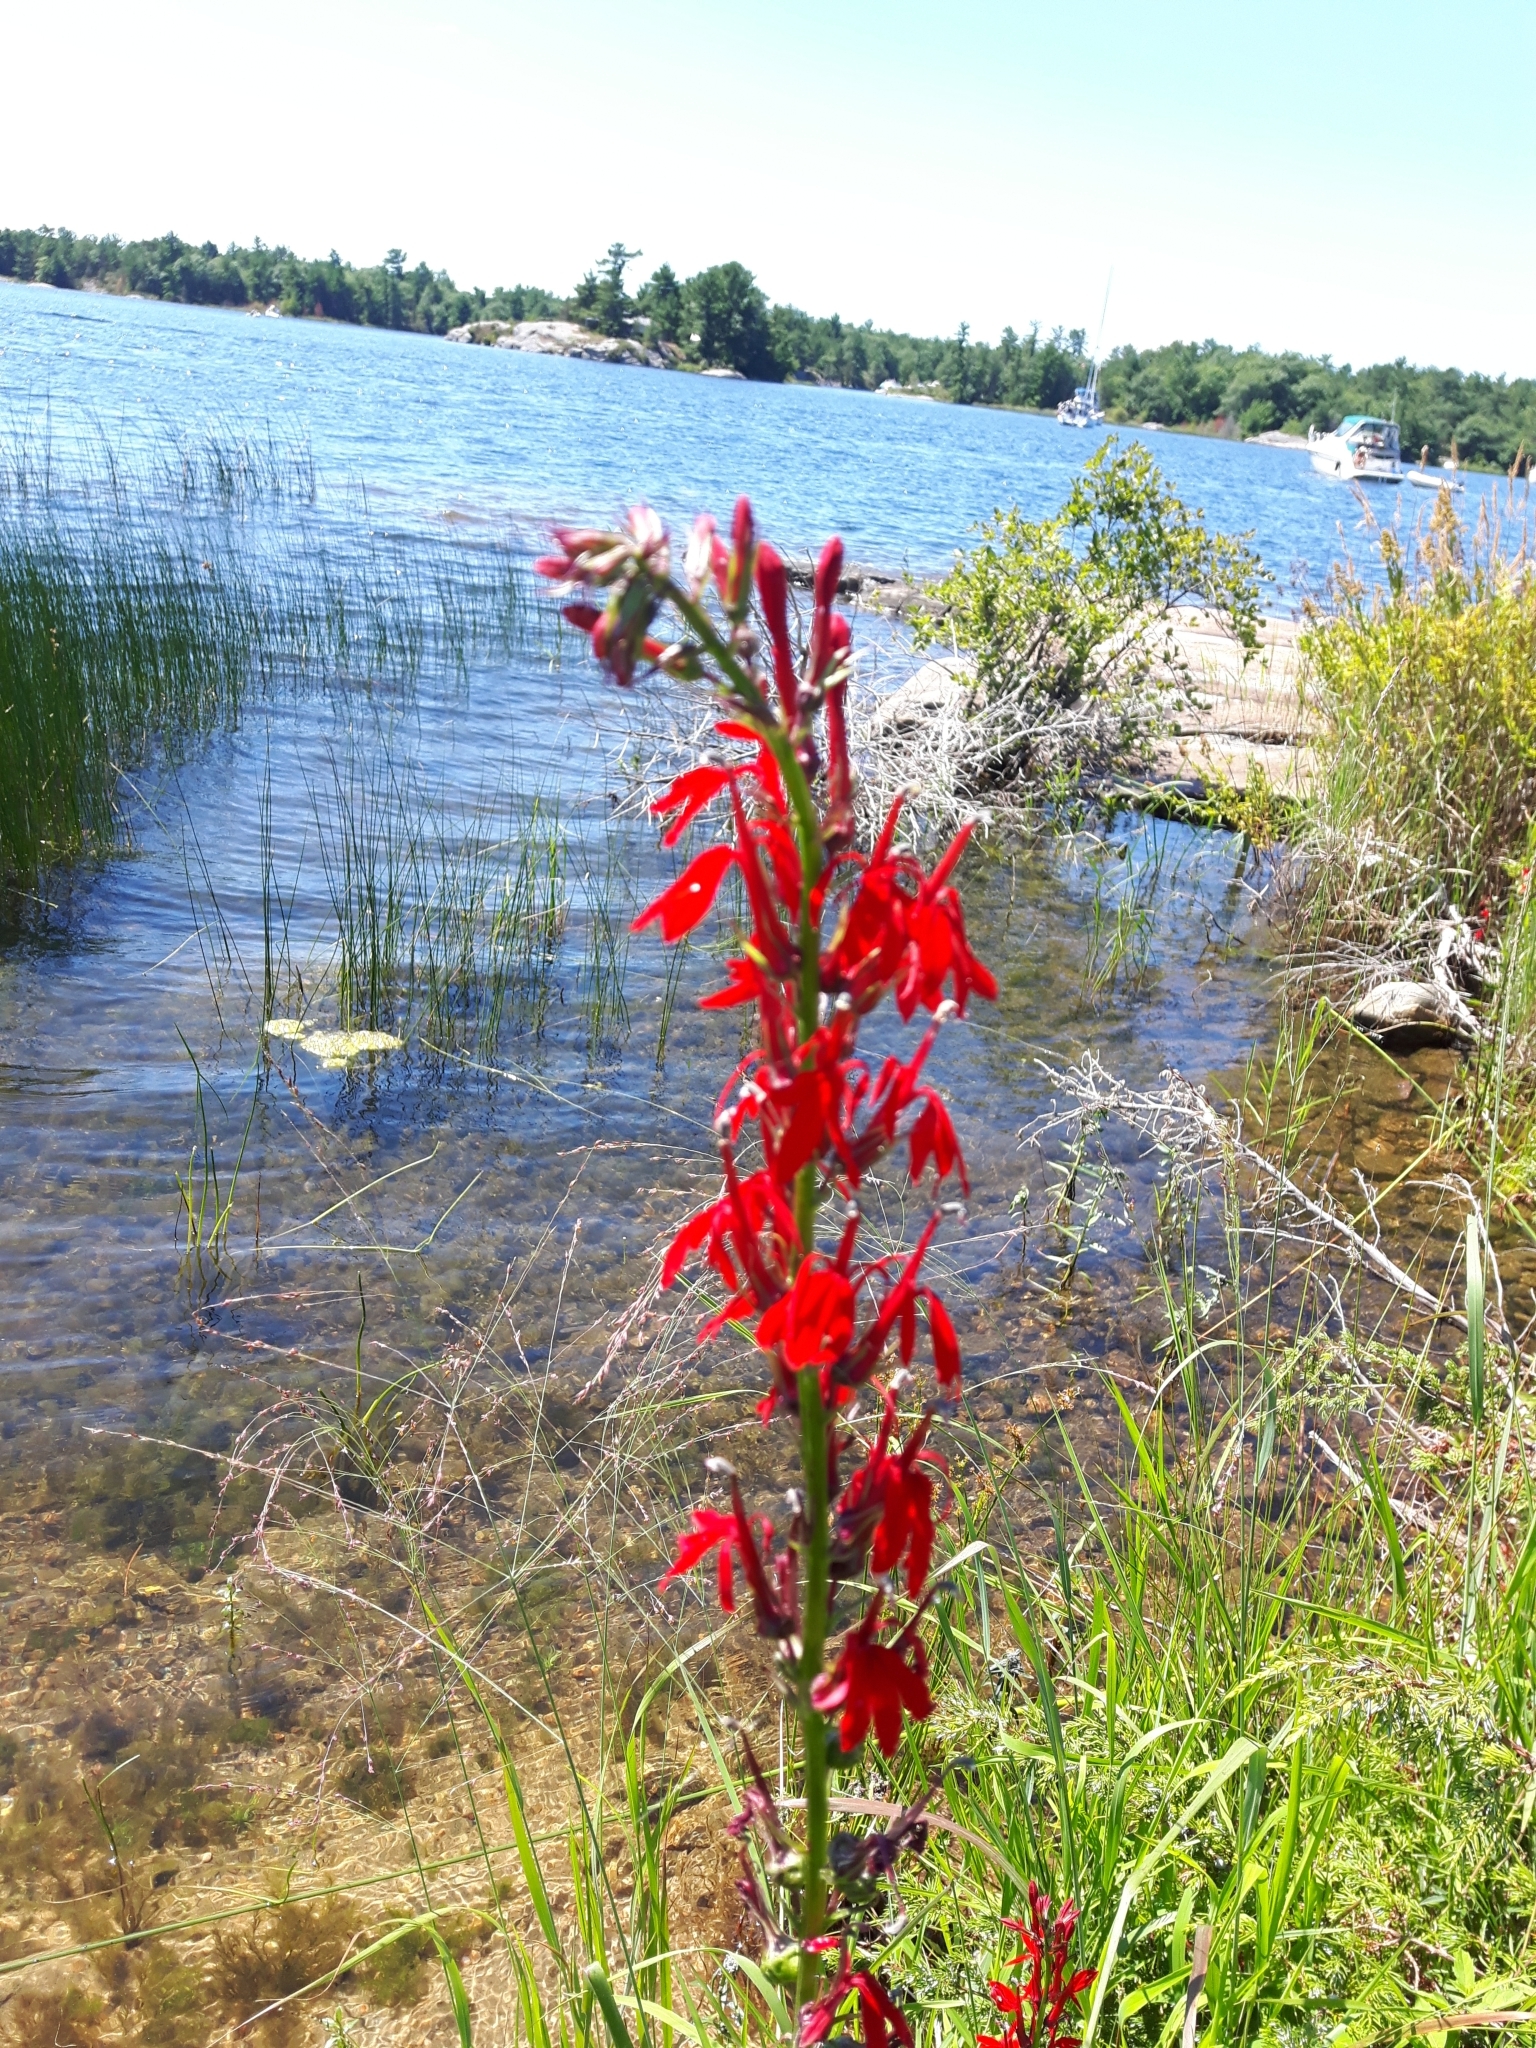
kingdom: Plantae
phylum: Tracheophyta
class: Magnoliopsida
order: Asterales
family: Campanulaceae
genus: Lobelia
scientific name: Lobelia cardinalis
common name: Cardinal flower
